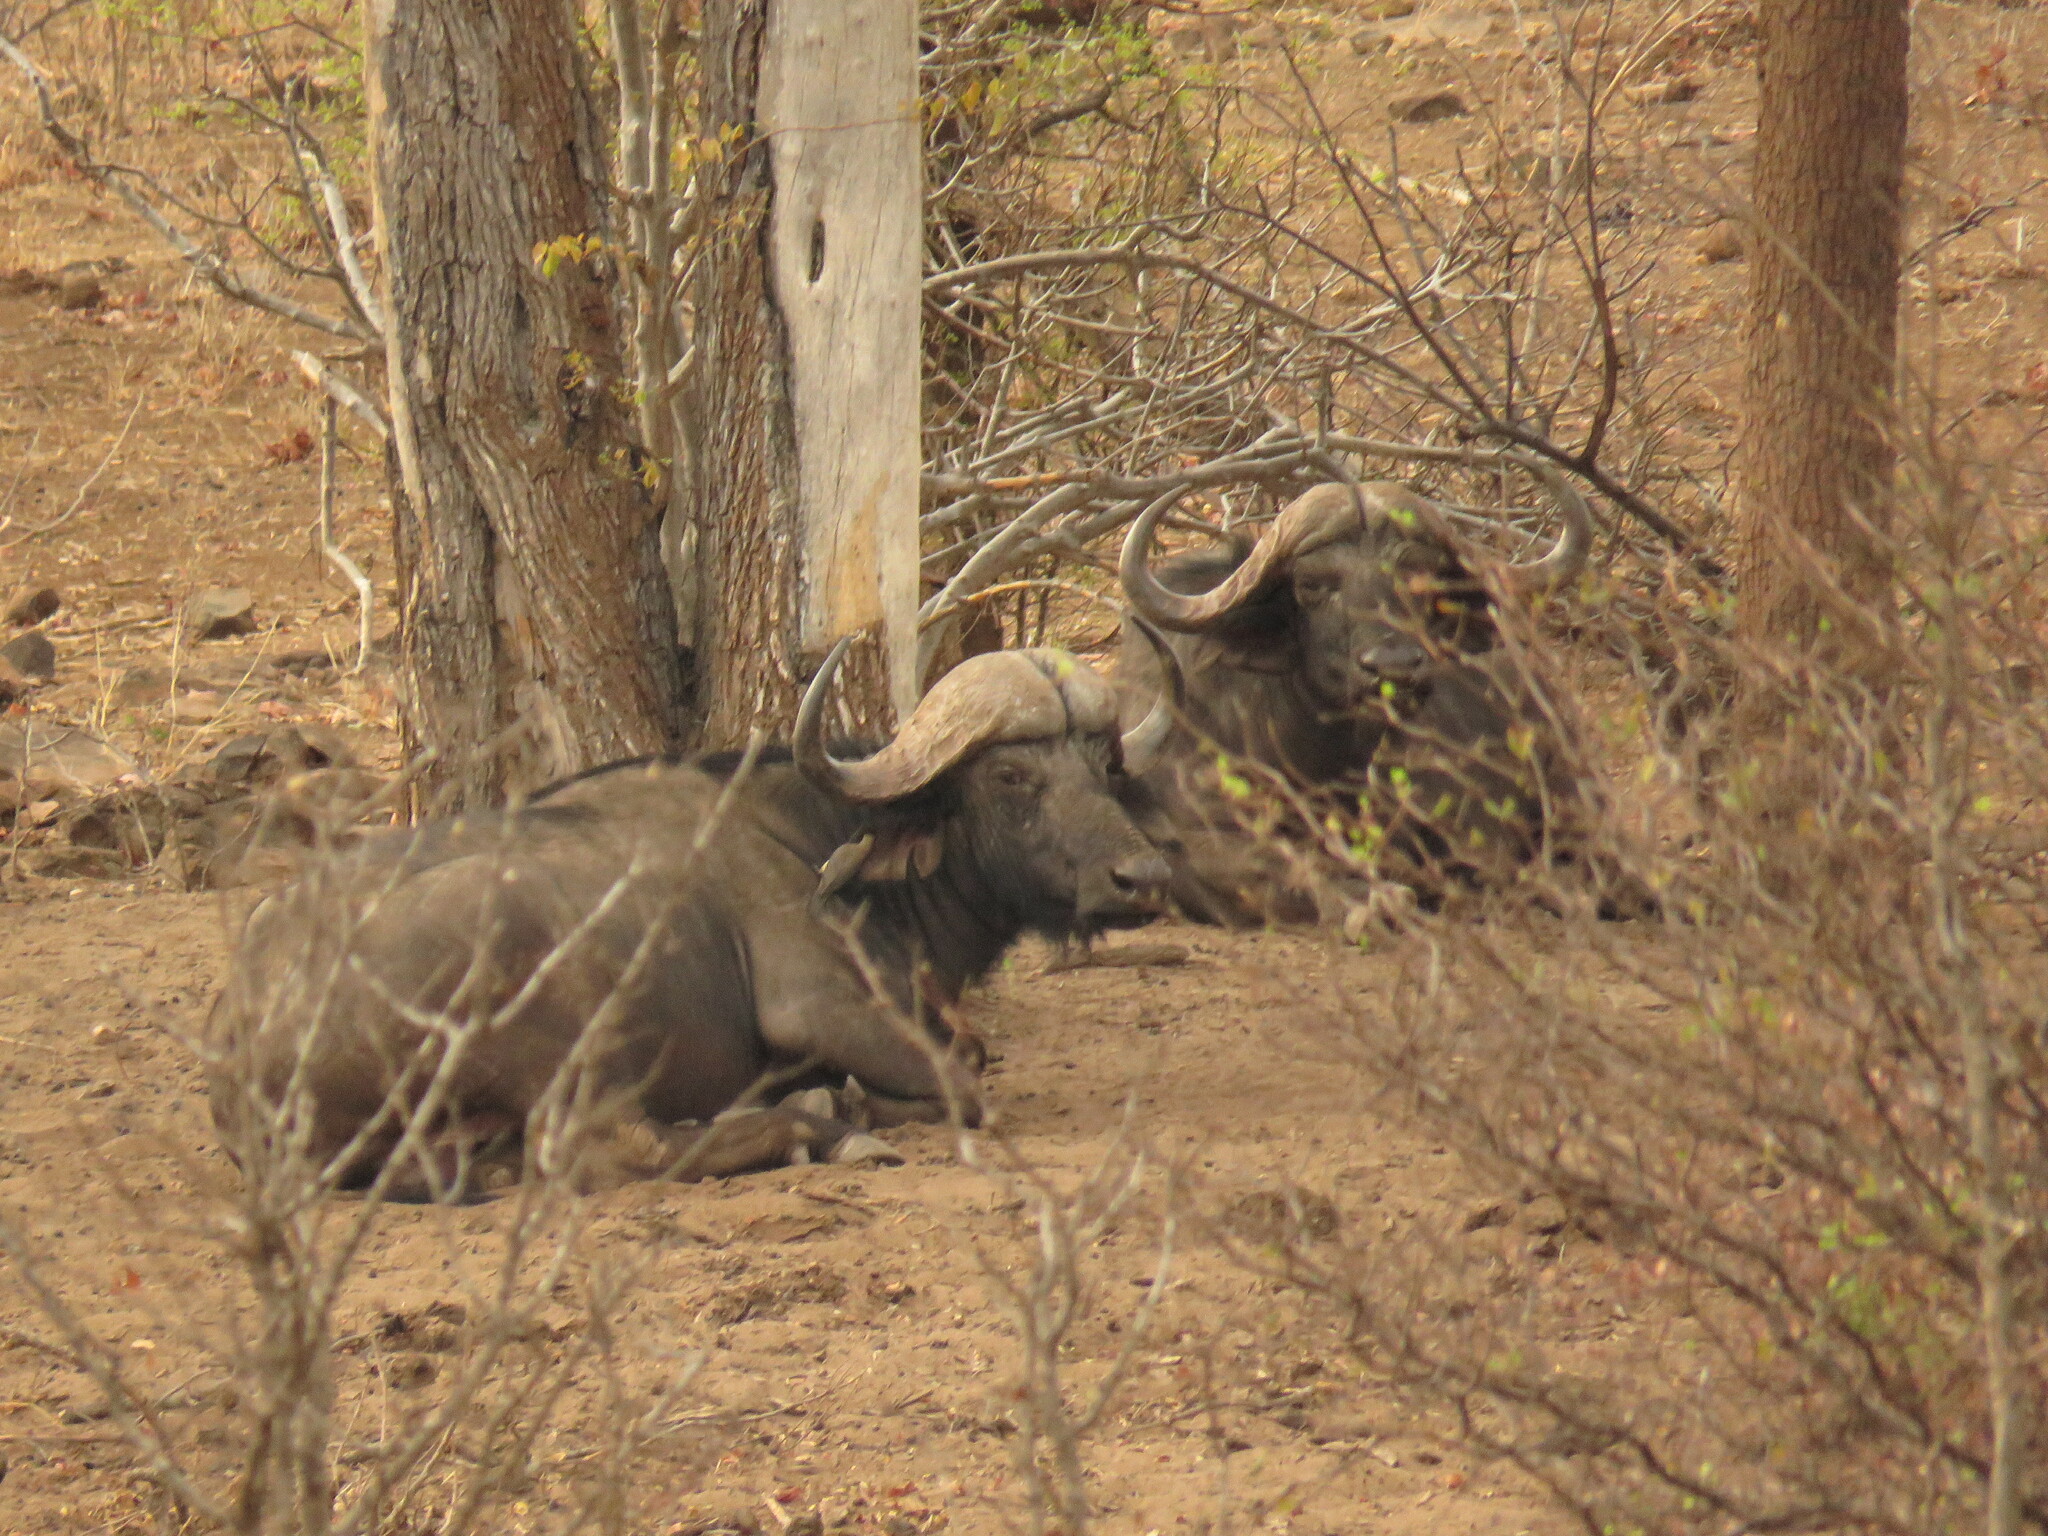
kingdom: Animalia
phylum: Chordata
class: Mammalia
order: Artiodactyla
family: Bovidae
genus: Syncerus
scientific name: Syncerus caffer
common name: African buffalo
